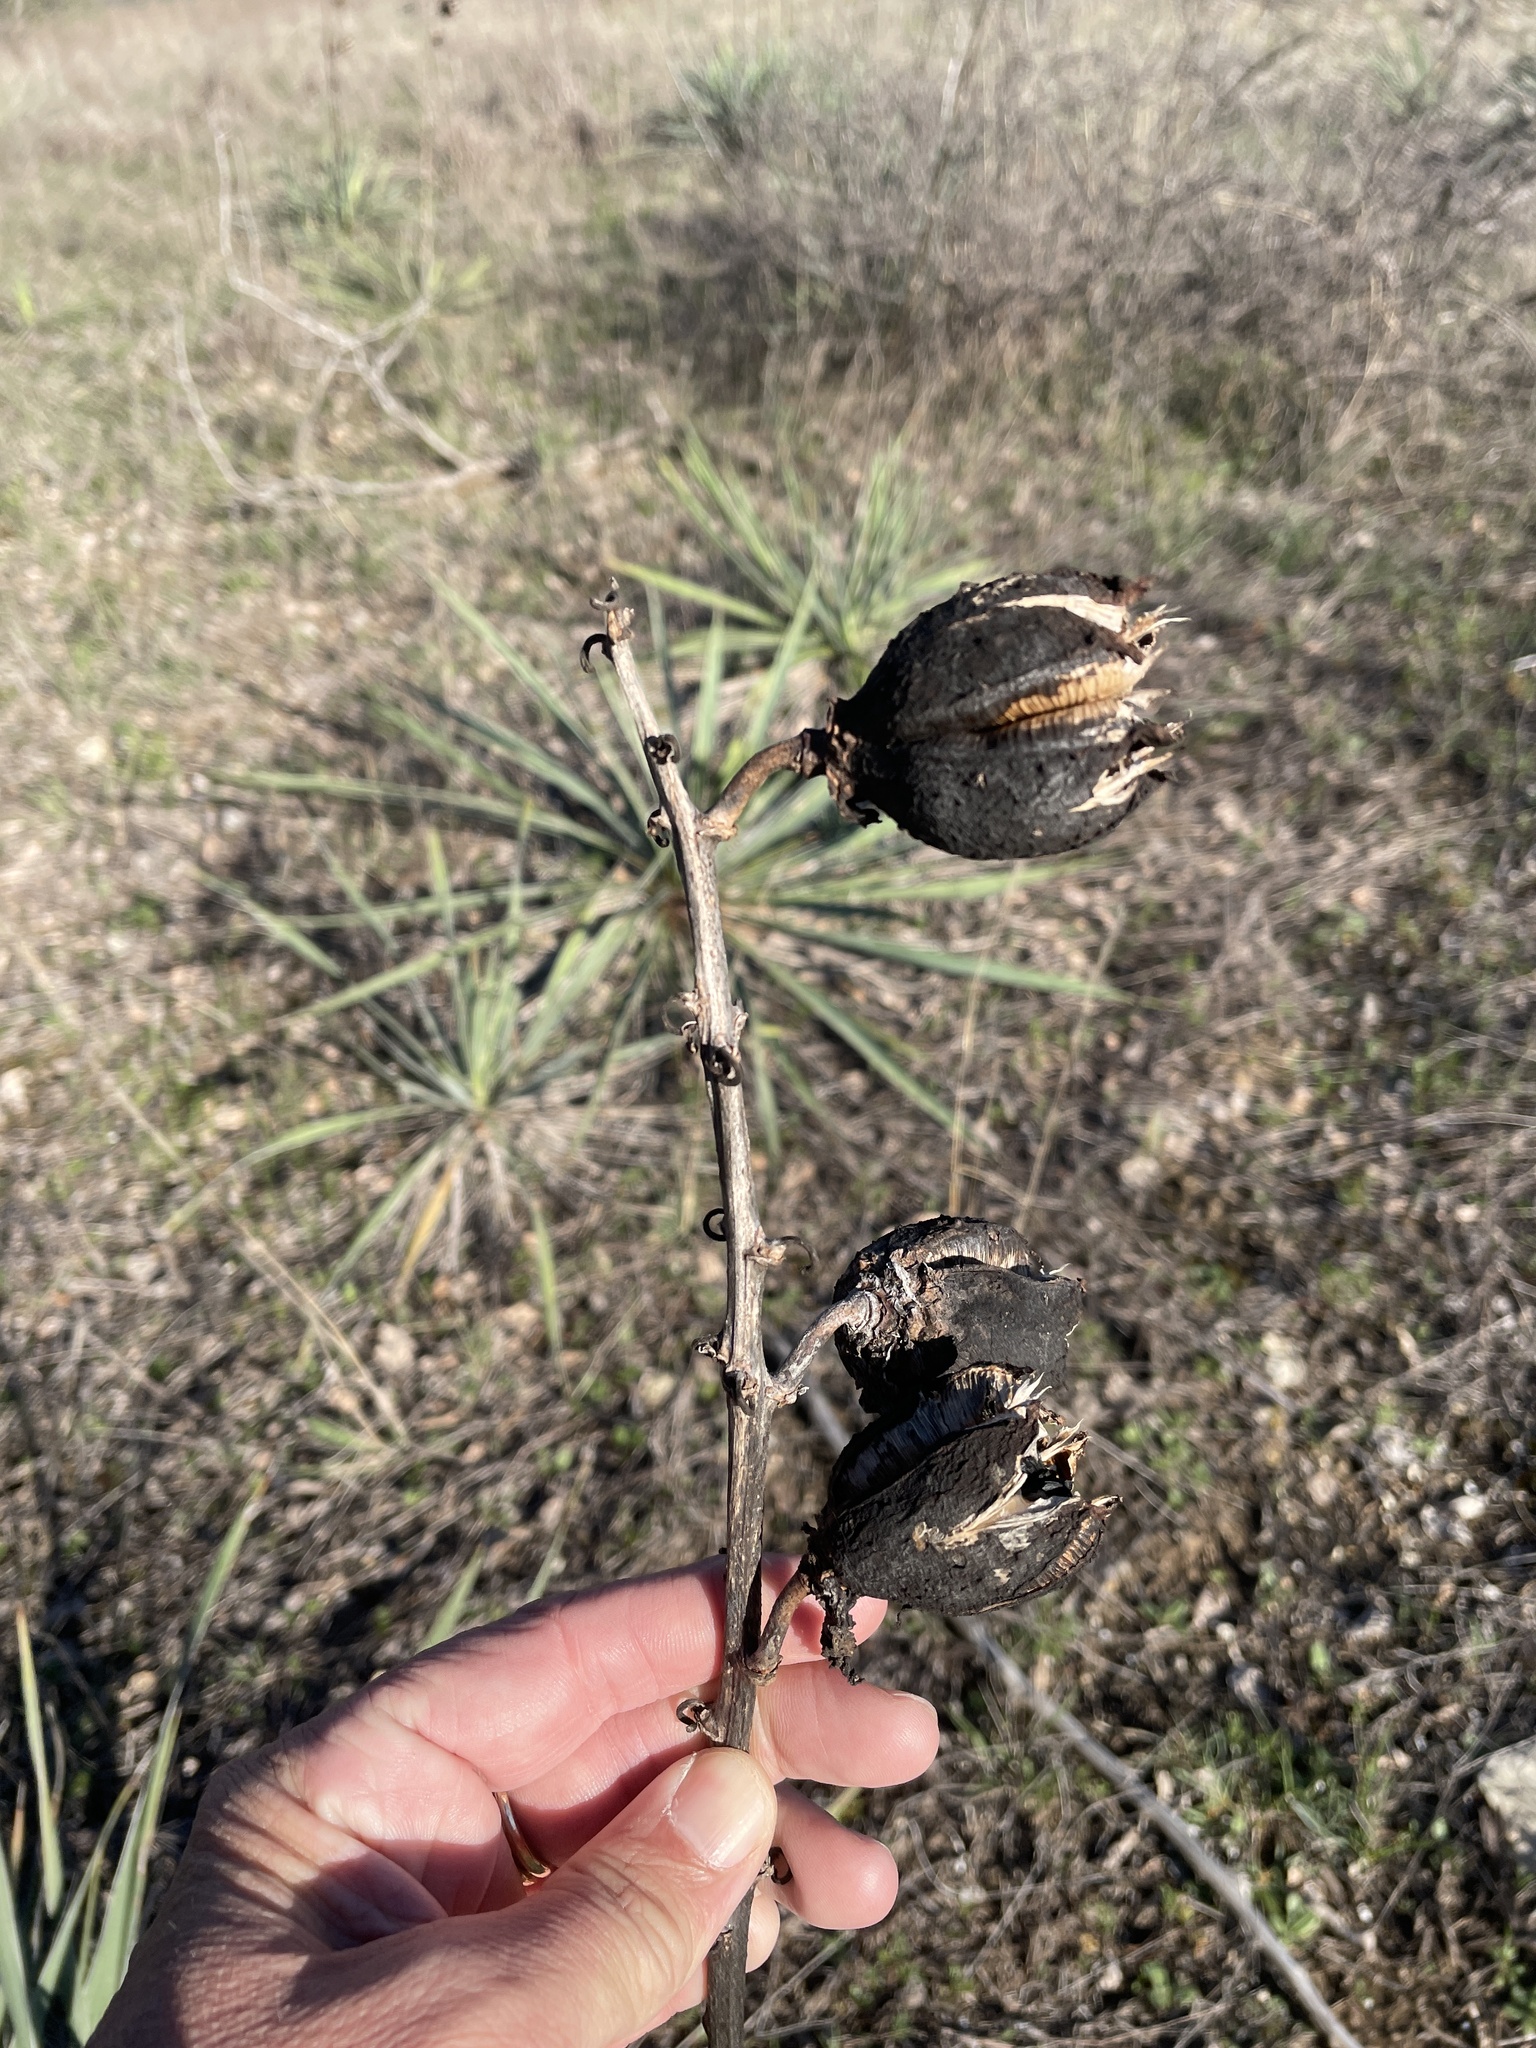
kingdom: Plantae
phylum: Tracheophyta
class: Liliopsida
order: Asparagales
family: Asparagaceae
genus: Yucca
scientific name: Yucca arkansana
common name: Arkansas yucca
